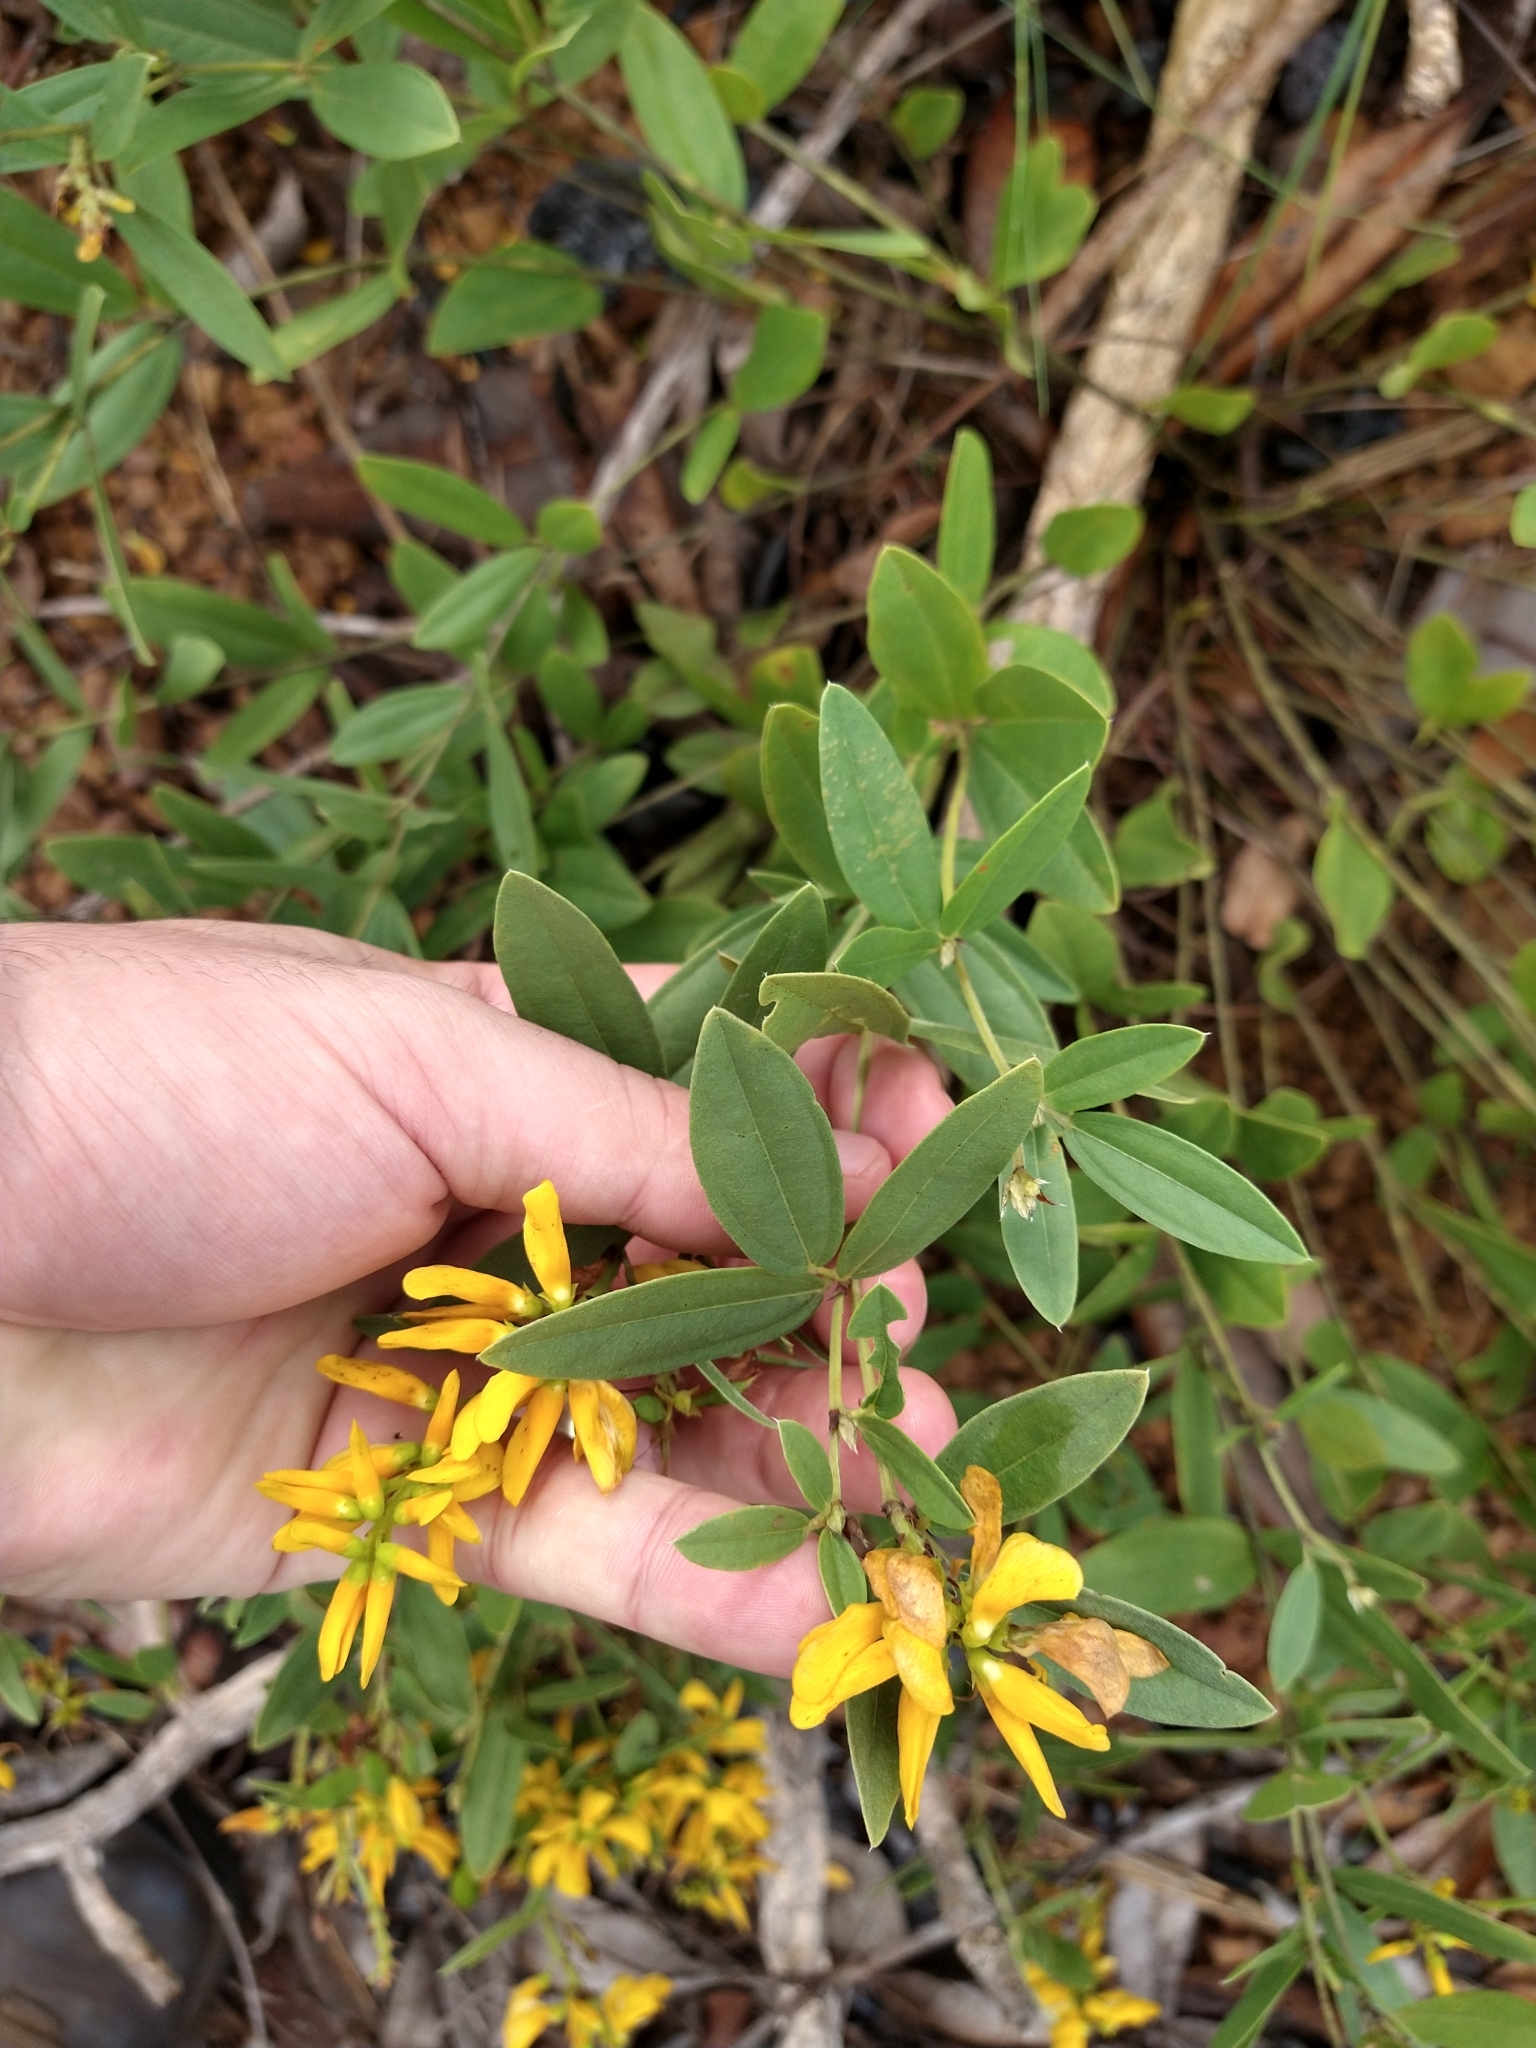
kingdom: Plantae
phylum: Tracheophyta
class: Magnoliopsida
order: Fabales
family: Fabaceae
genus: Eriosema
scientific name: Eriosema glabrum
